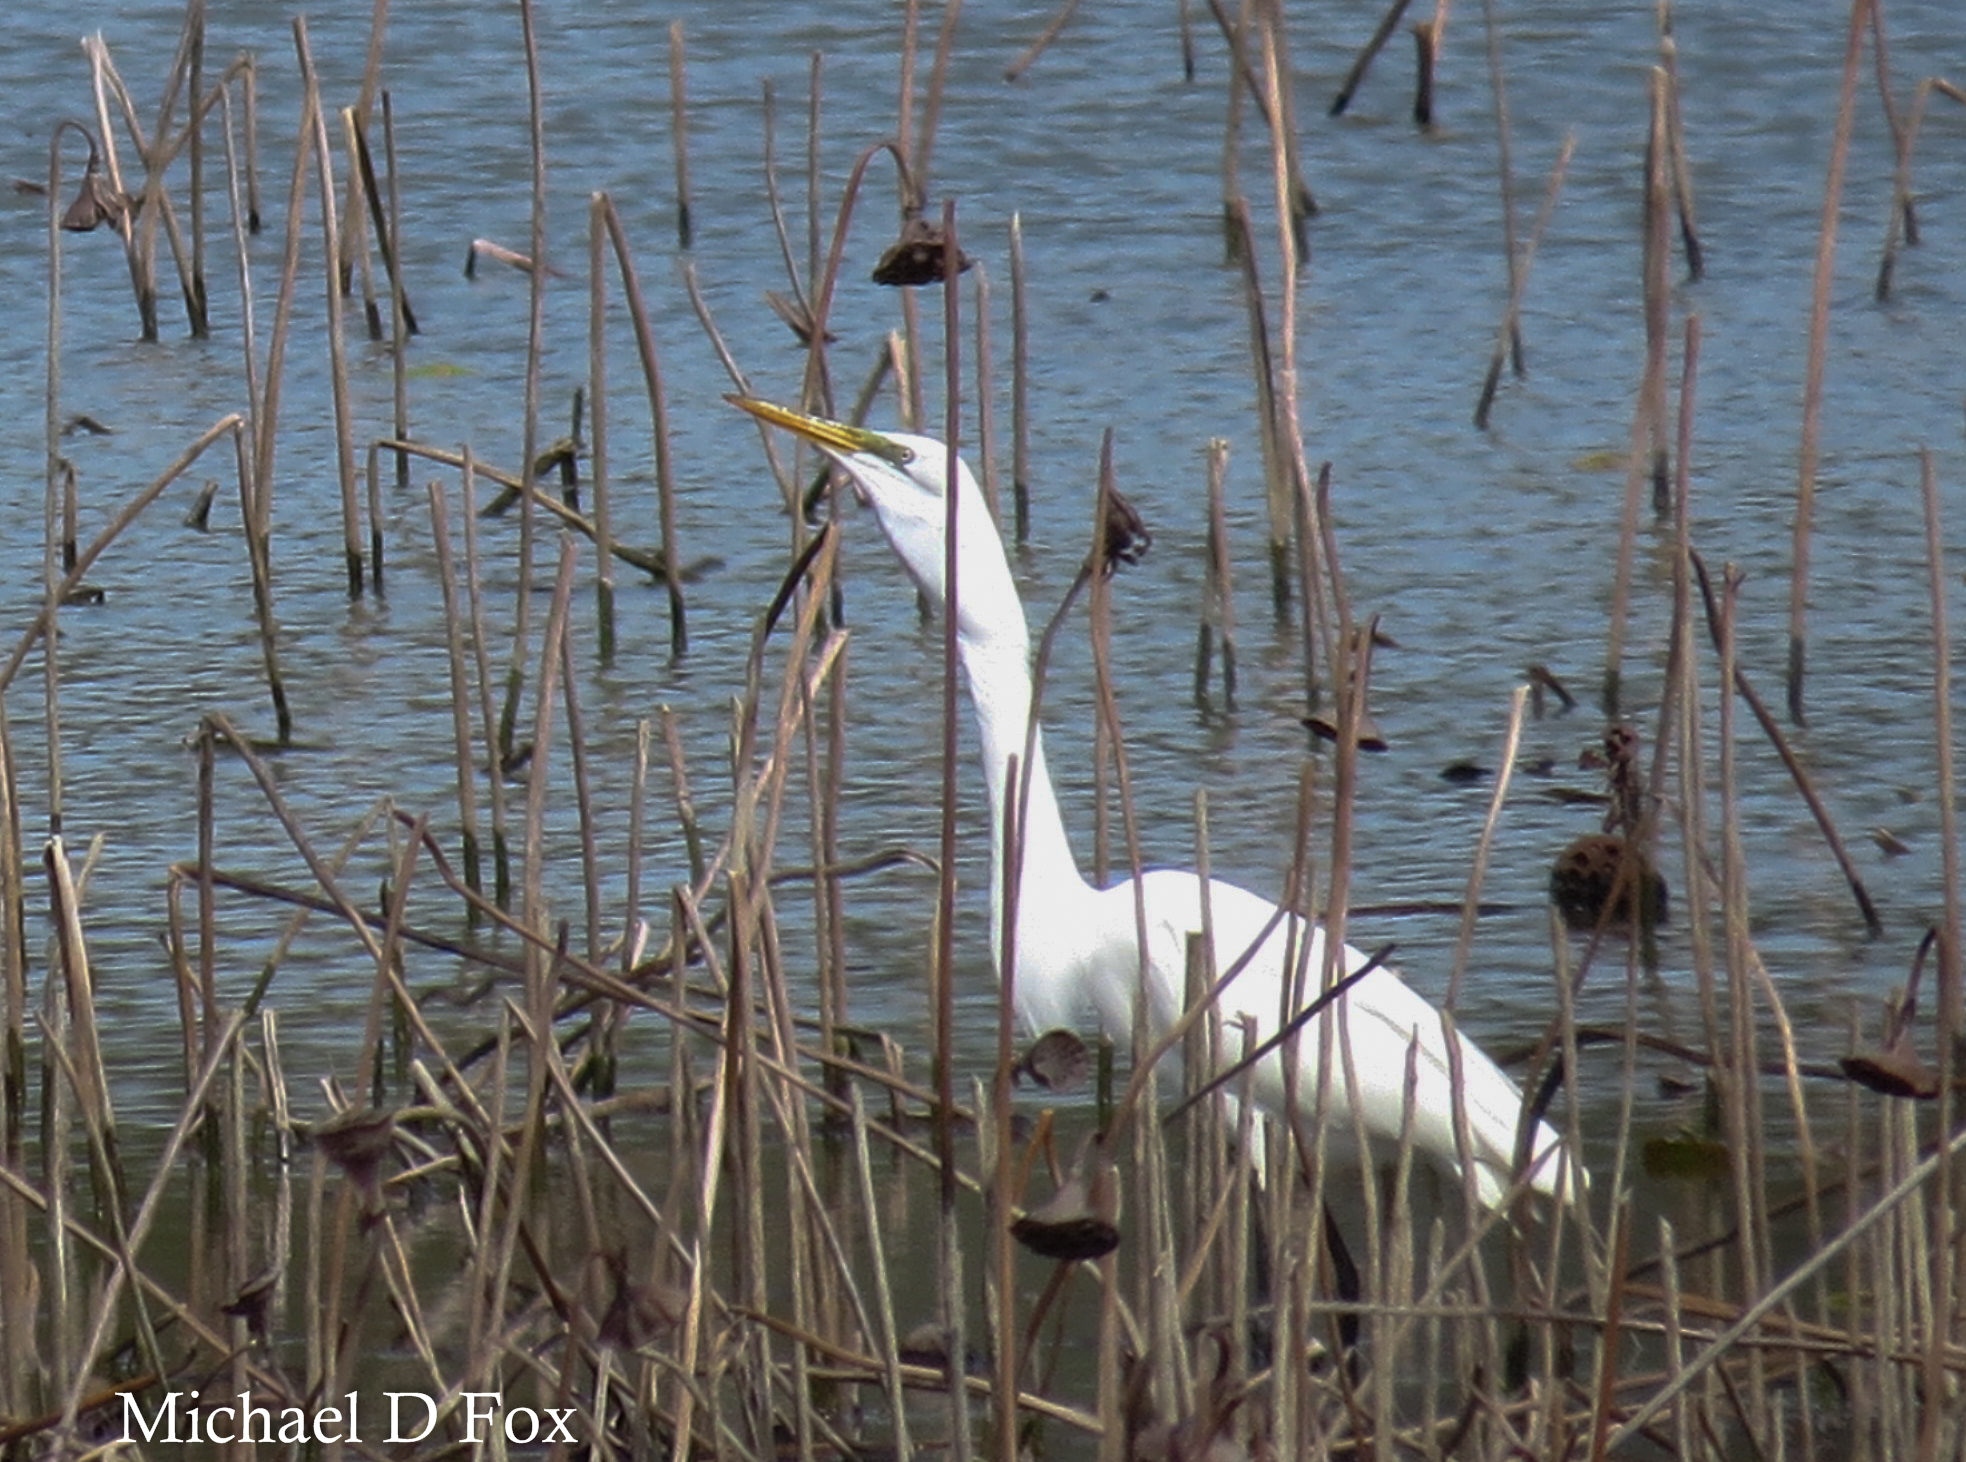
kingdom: Animalia
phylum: Chordata
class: Aves
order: Pelecaniformes
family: Ardeidae
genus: Ardea
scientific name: Ardea alba
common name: Great egret
